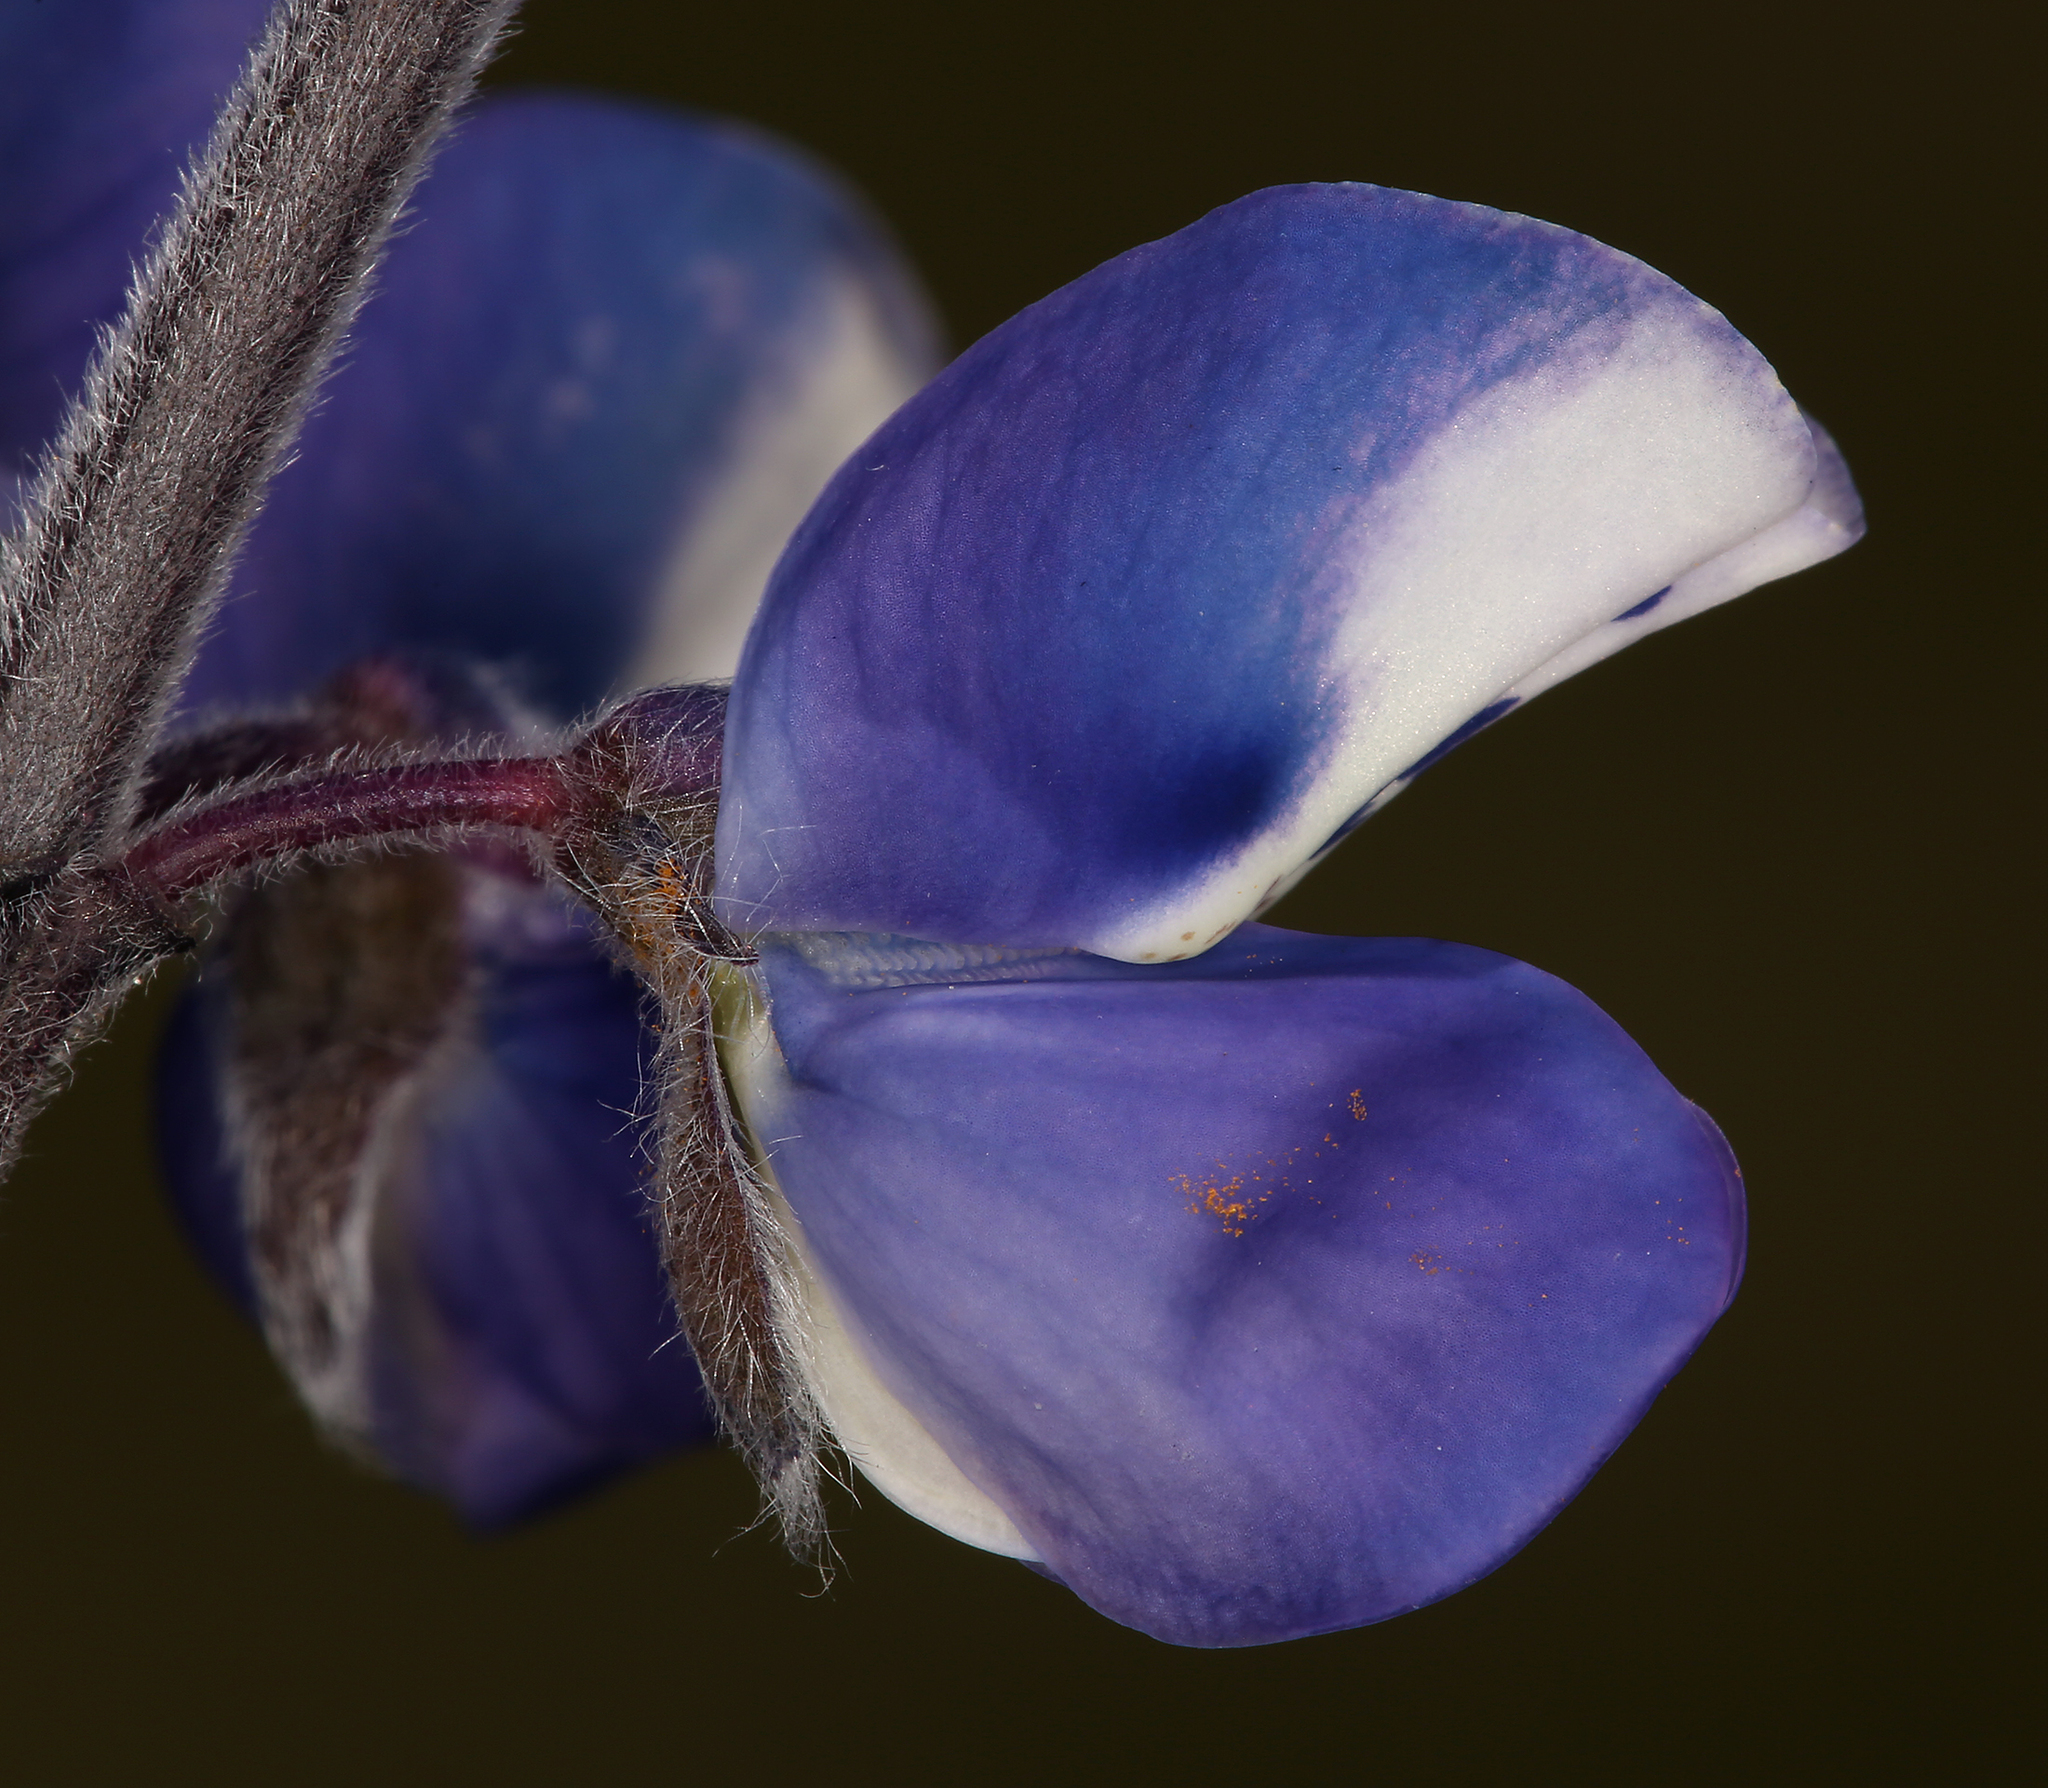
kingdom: Plantae
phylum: Tracheophyta
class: Magnoliopsida
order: Fabales
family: Fabaceae
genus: Lupinus
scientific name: Lupinus bicolor
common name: Miniature lupine
